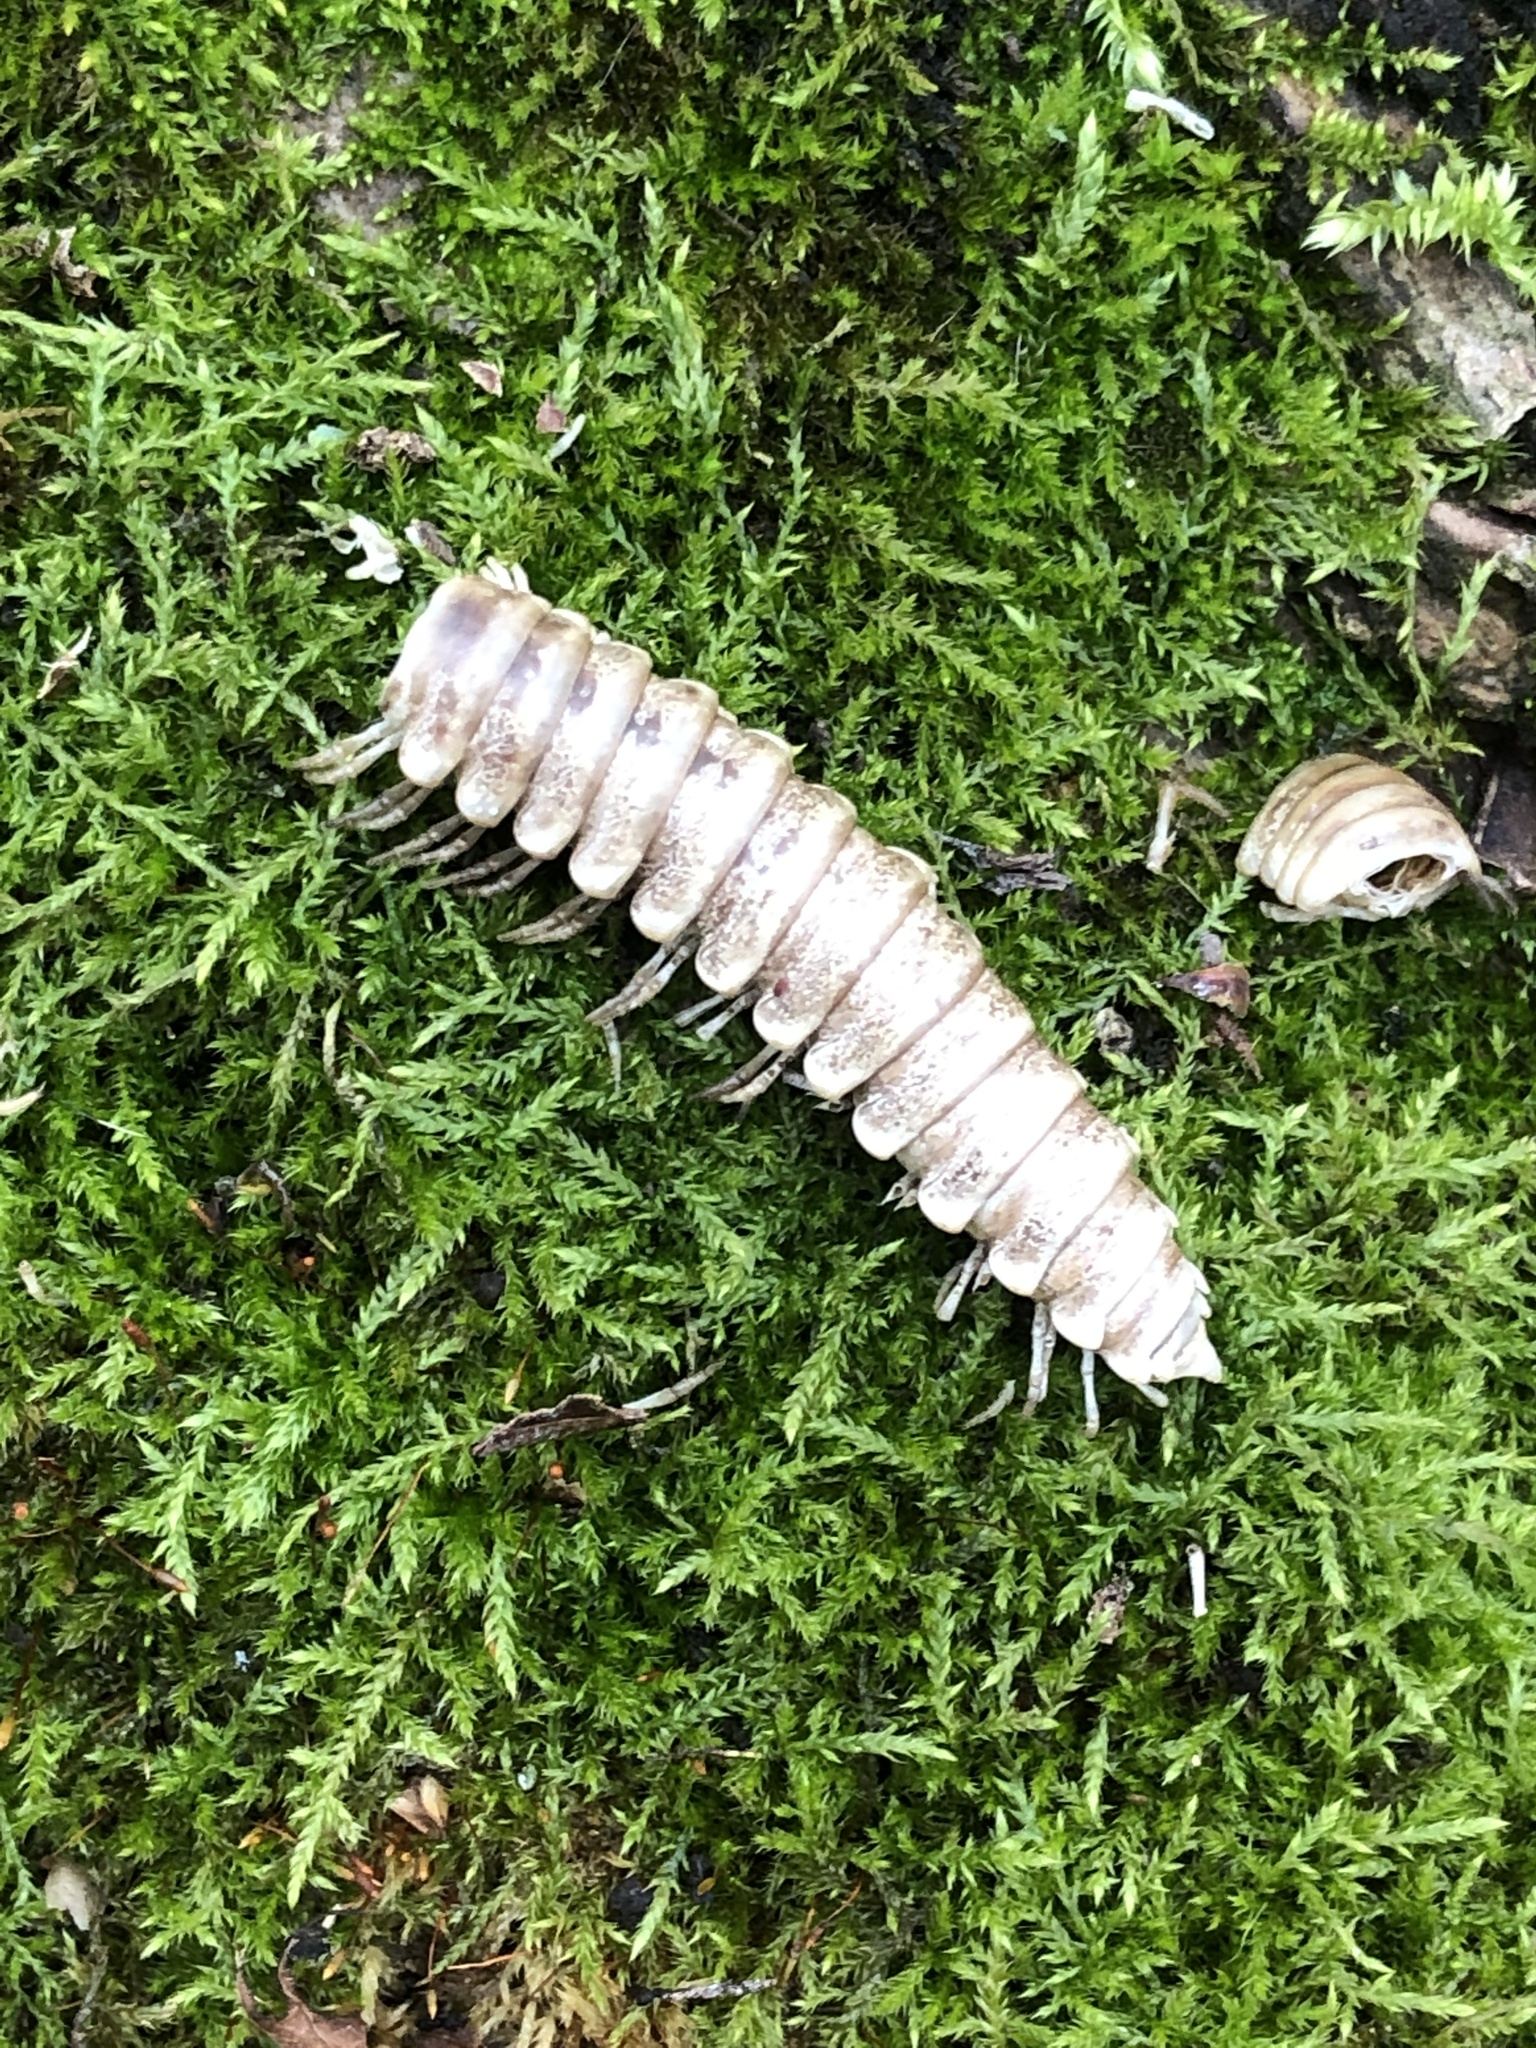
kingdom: Animalia
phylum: Arthropoda
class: Diplopoda
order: Polydesmida
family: Xystodesmidae
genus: Rudiloria
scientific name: Rudiloria trimaculata
